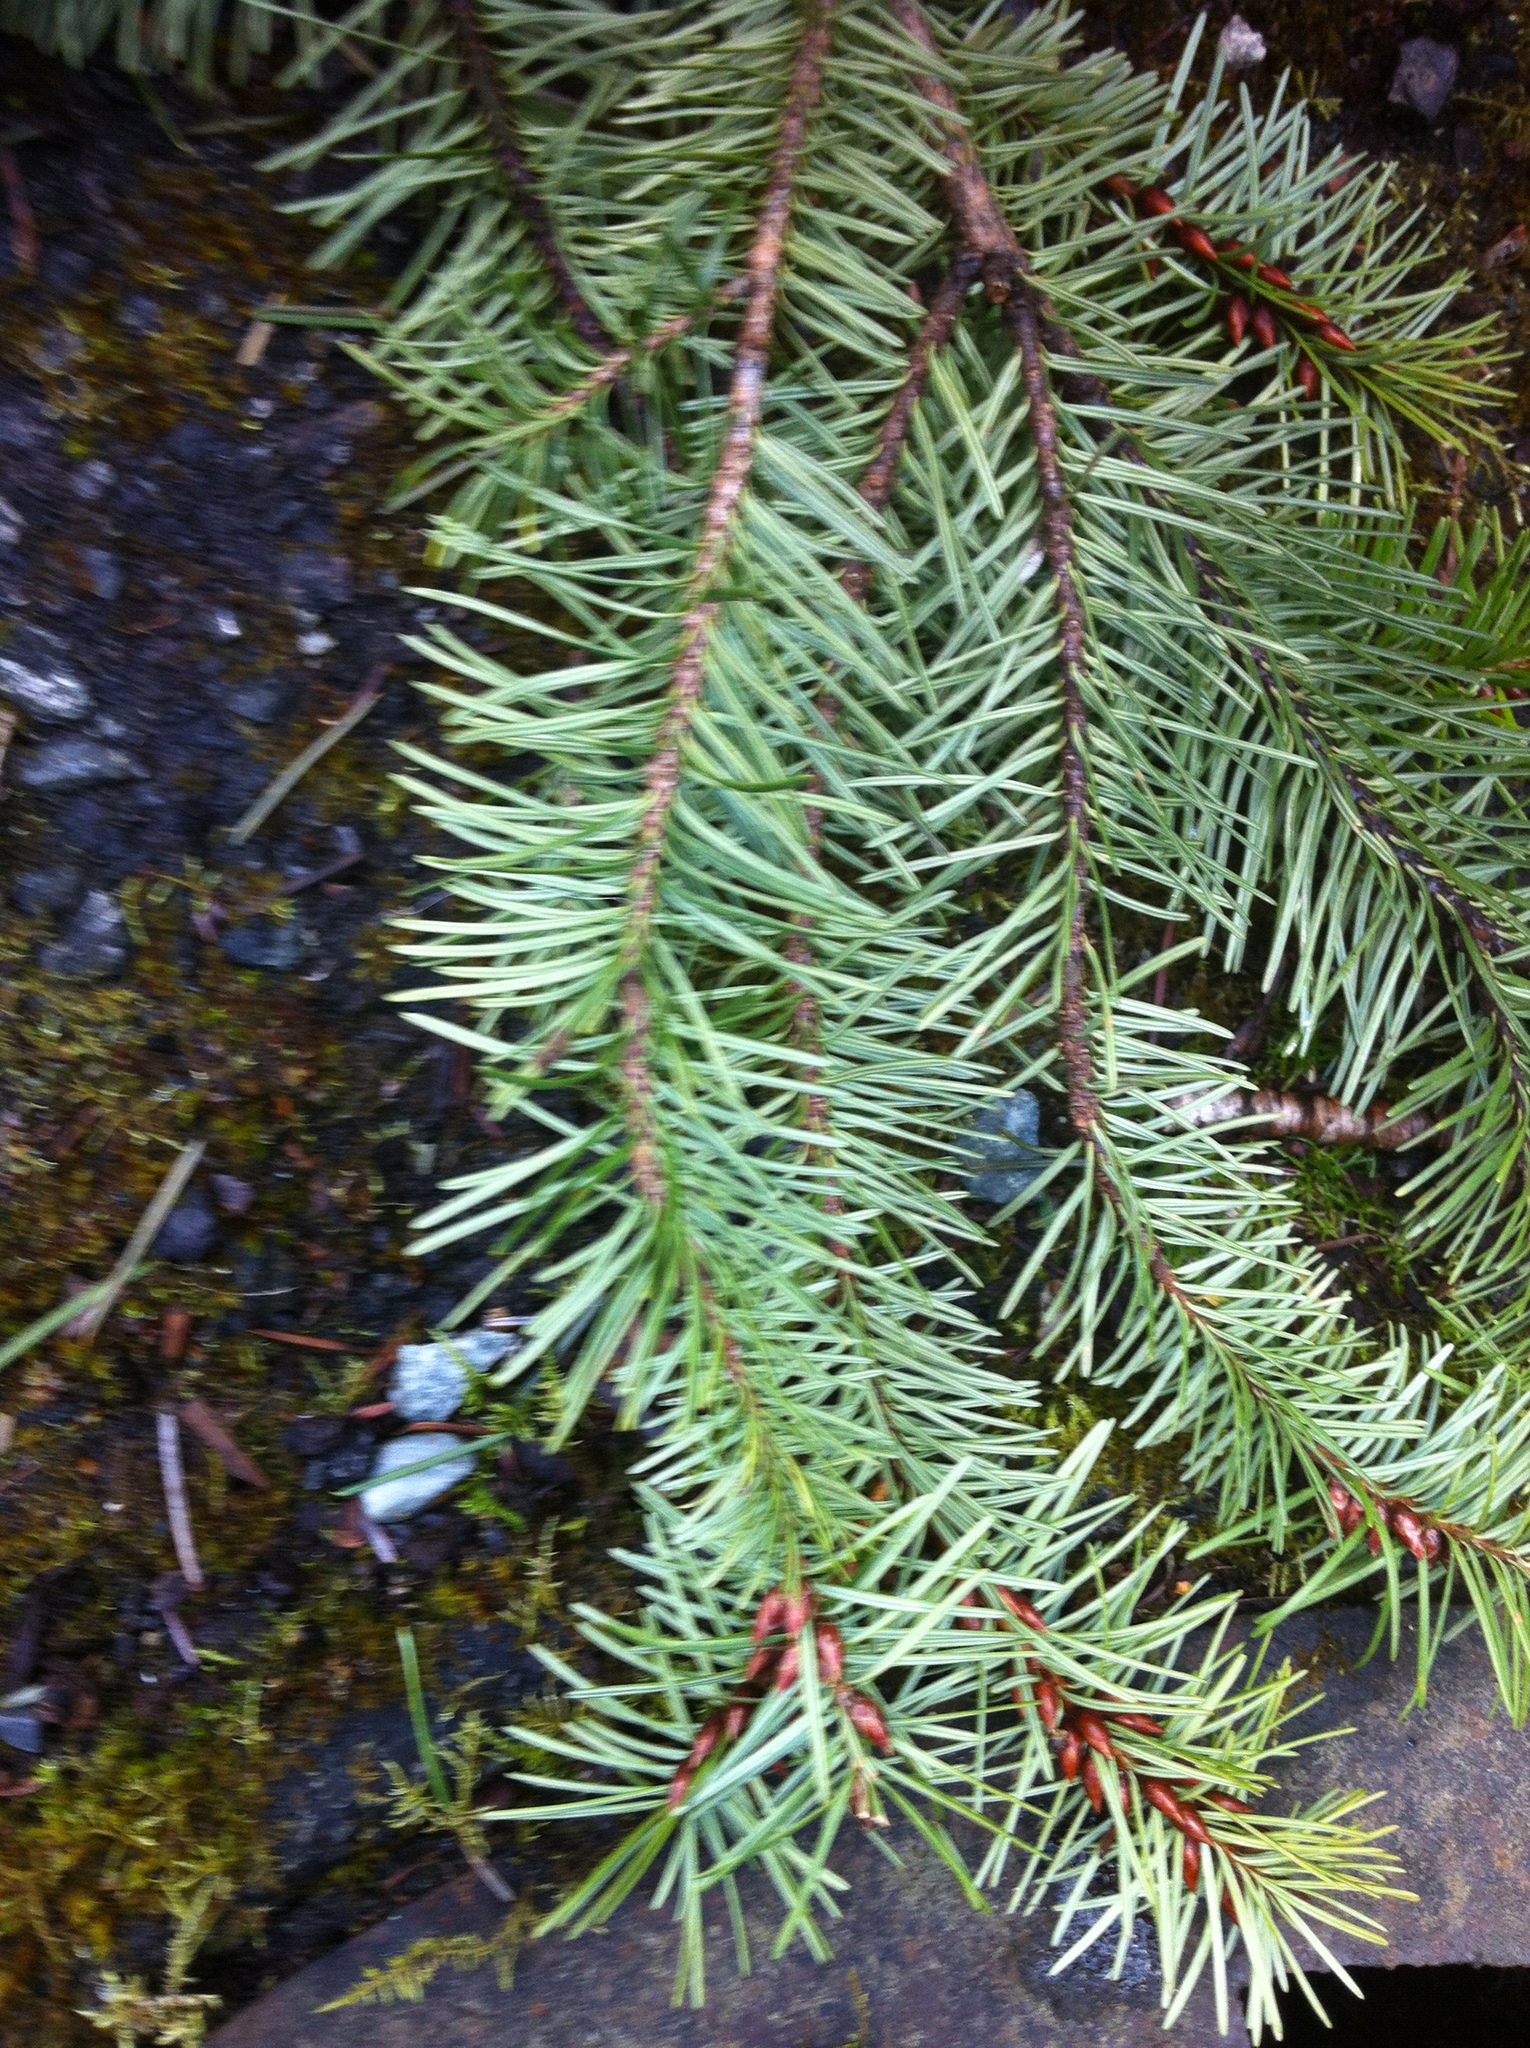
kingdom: Plantae
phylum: Tracheophyta
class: Pinopsida
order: Pinales
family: Pinaceae
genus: Pseudotsuga
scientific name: Pseudotsuga menziesii
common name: Douglas fir
